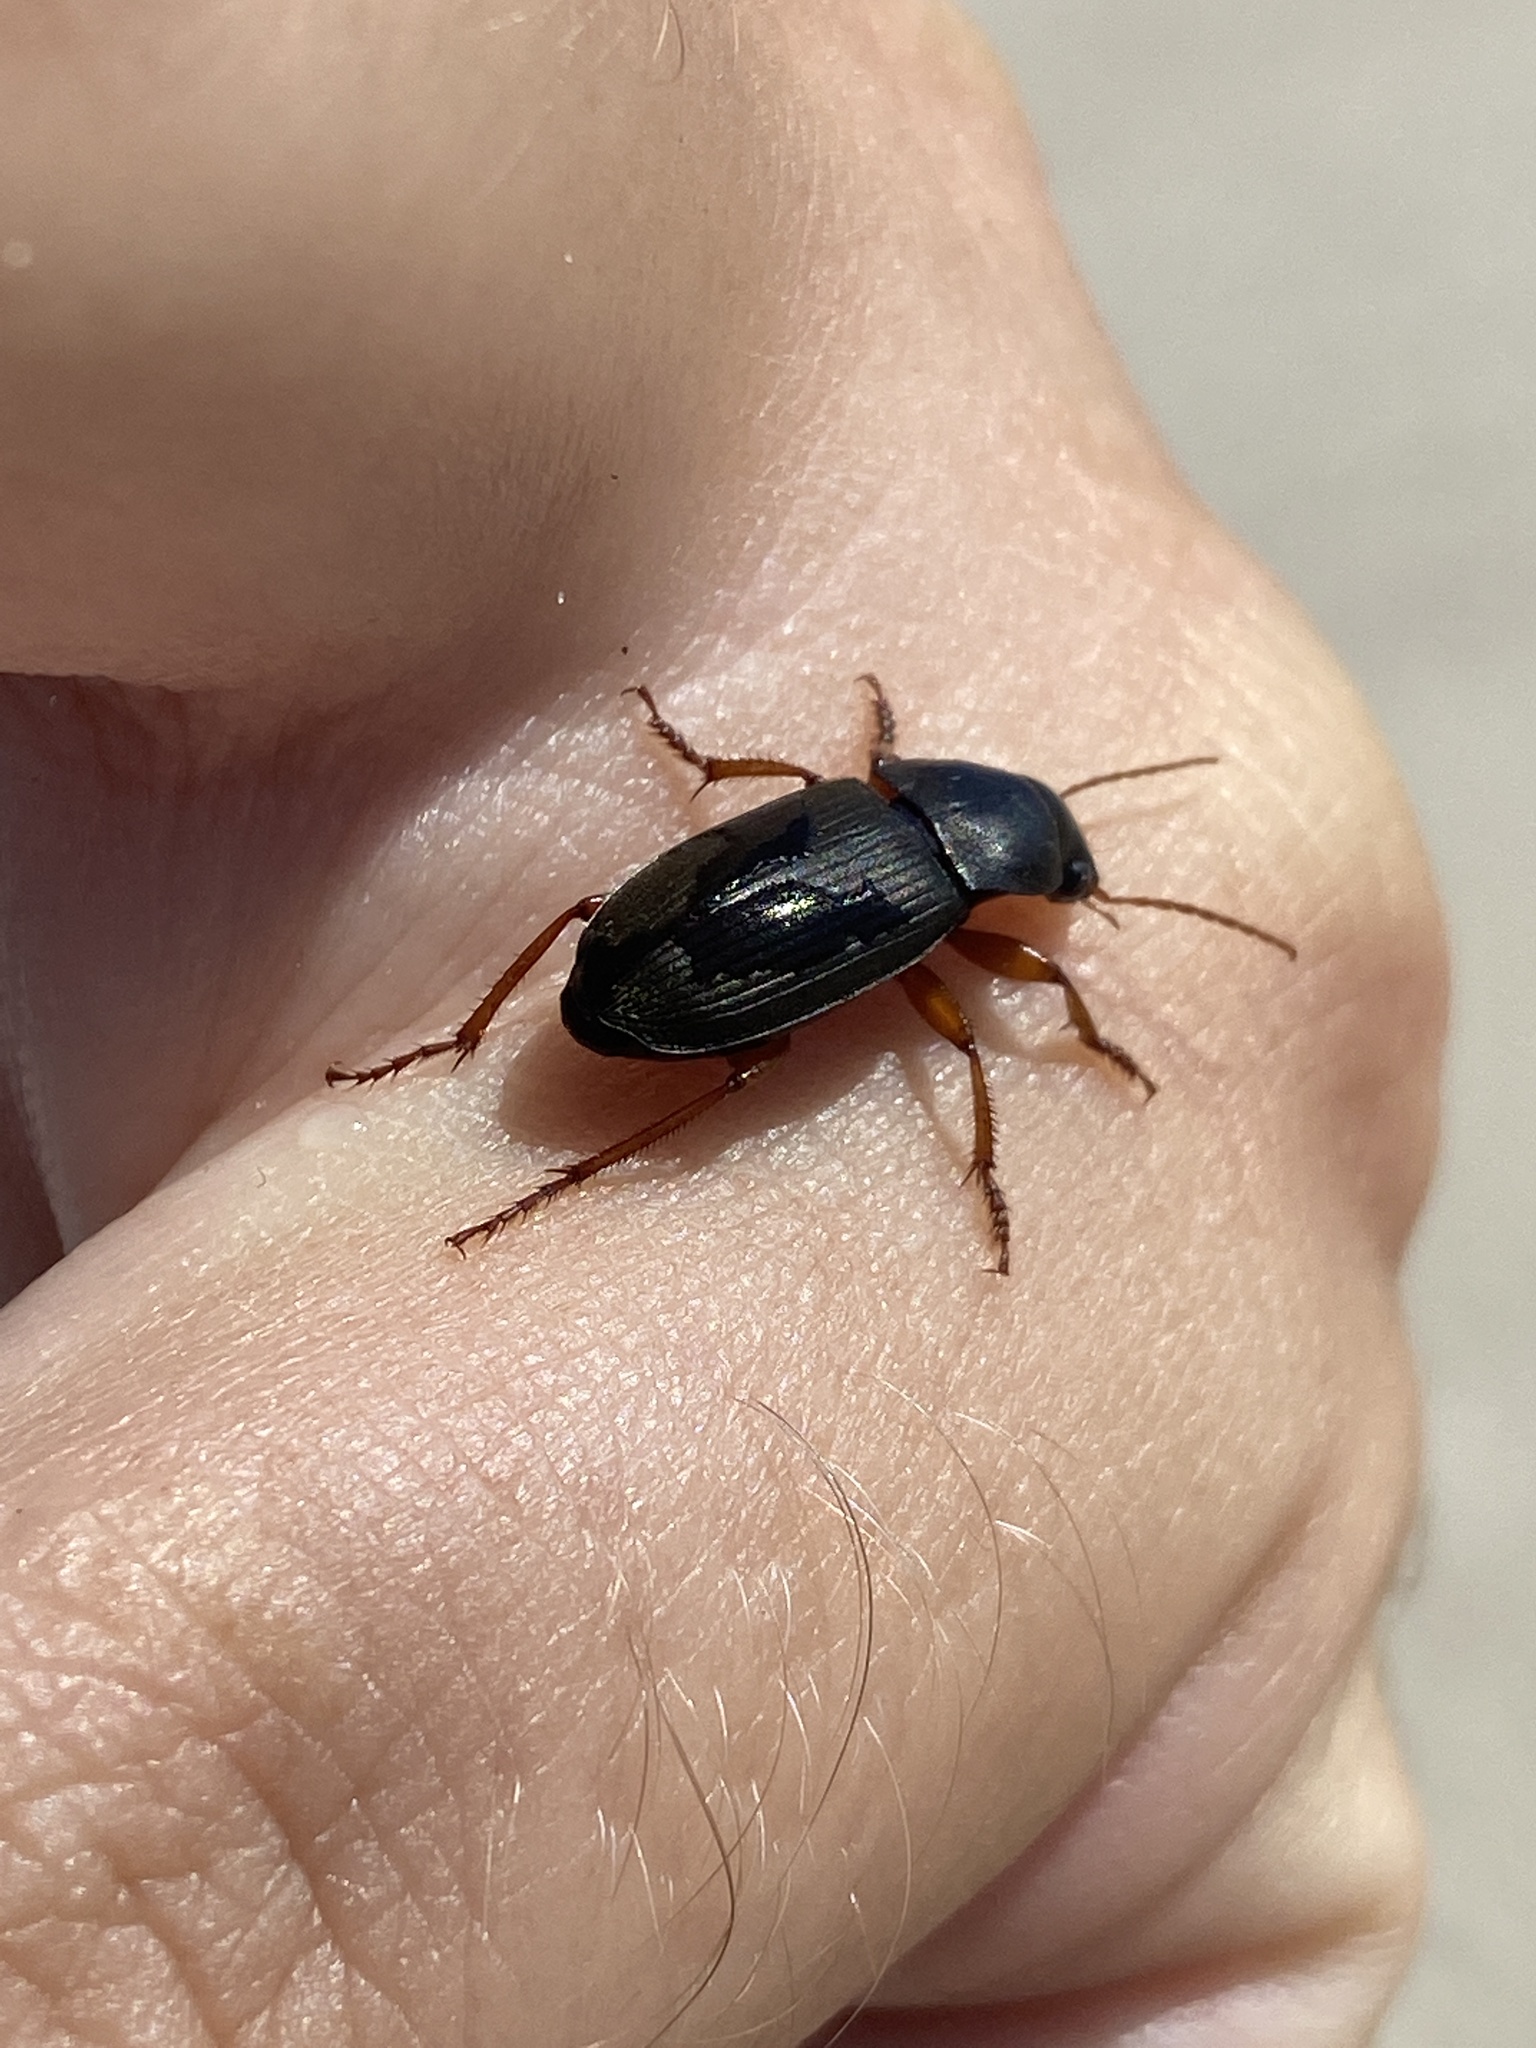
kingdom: Animalia
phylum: Arthropoda
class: Insecta
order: Coleoptera
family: Carabidae
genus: Harpalus
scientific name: Harpalus rufipes
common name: Strawberry harp ground beetle
